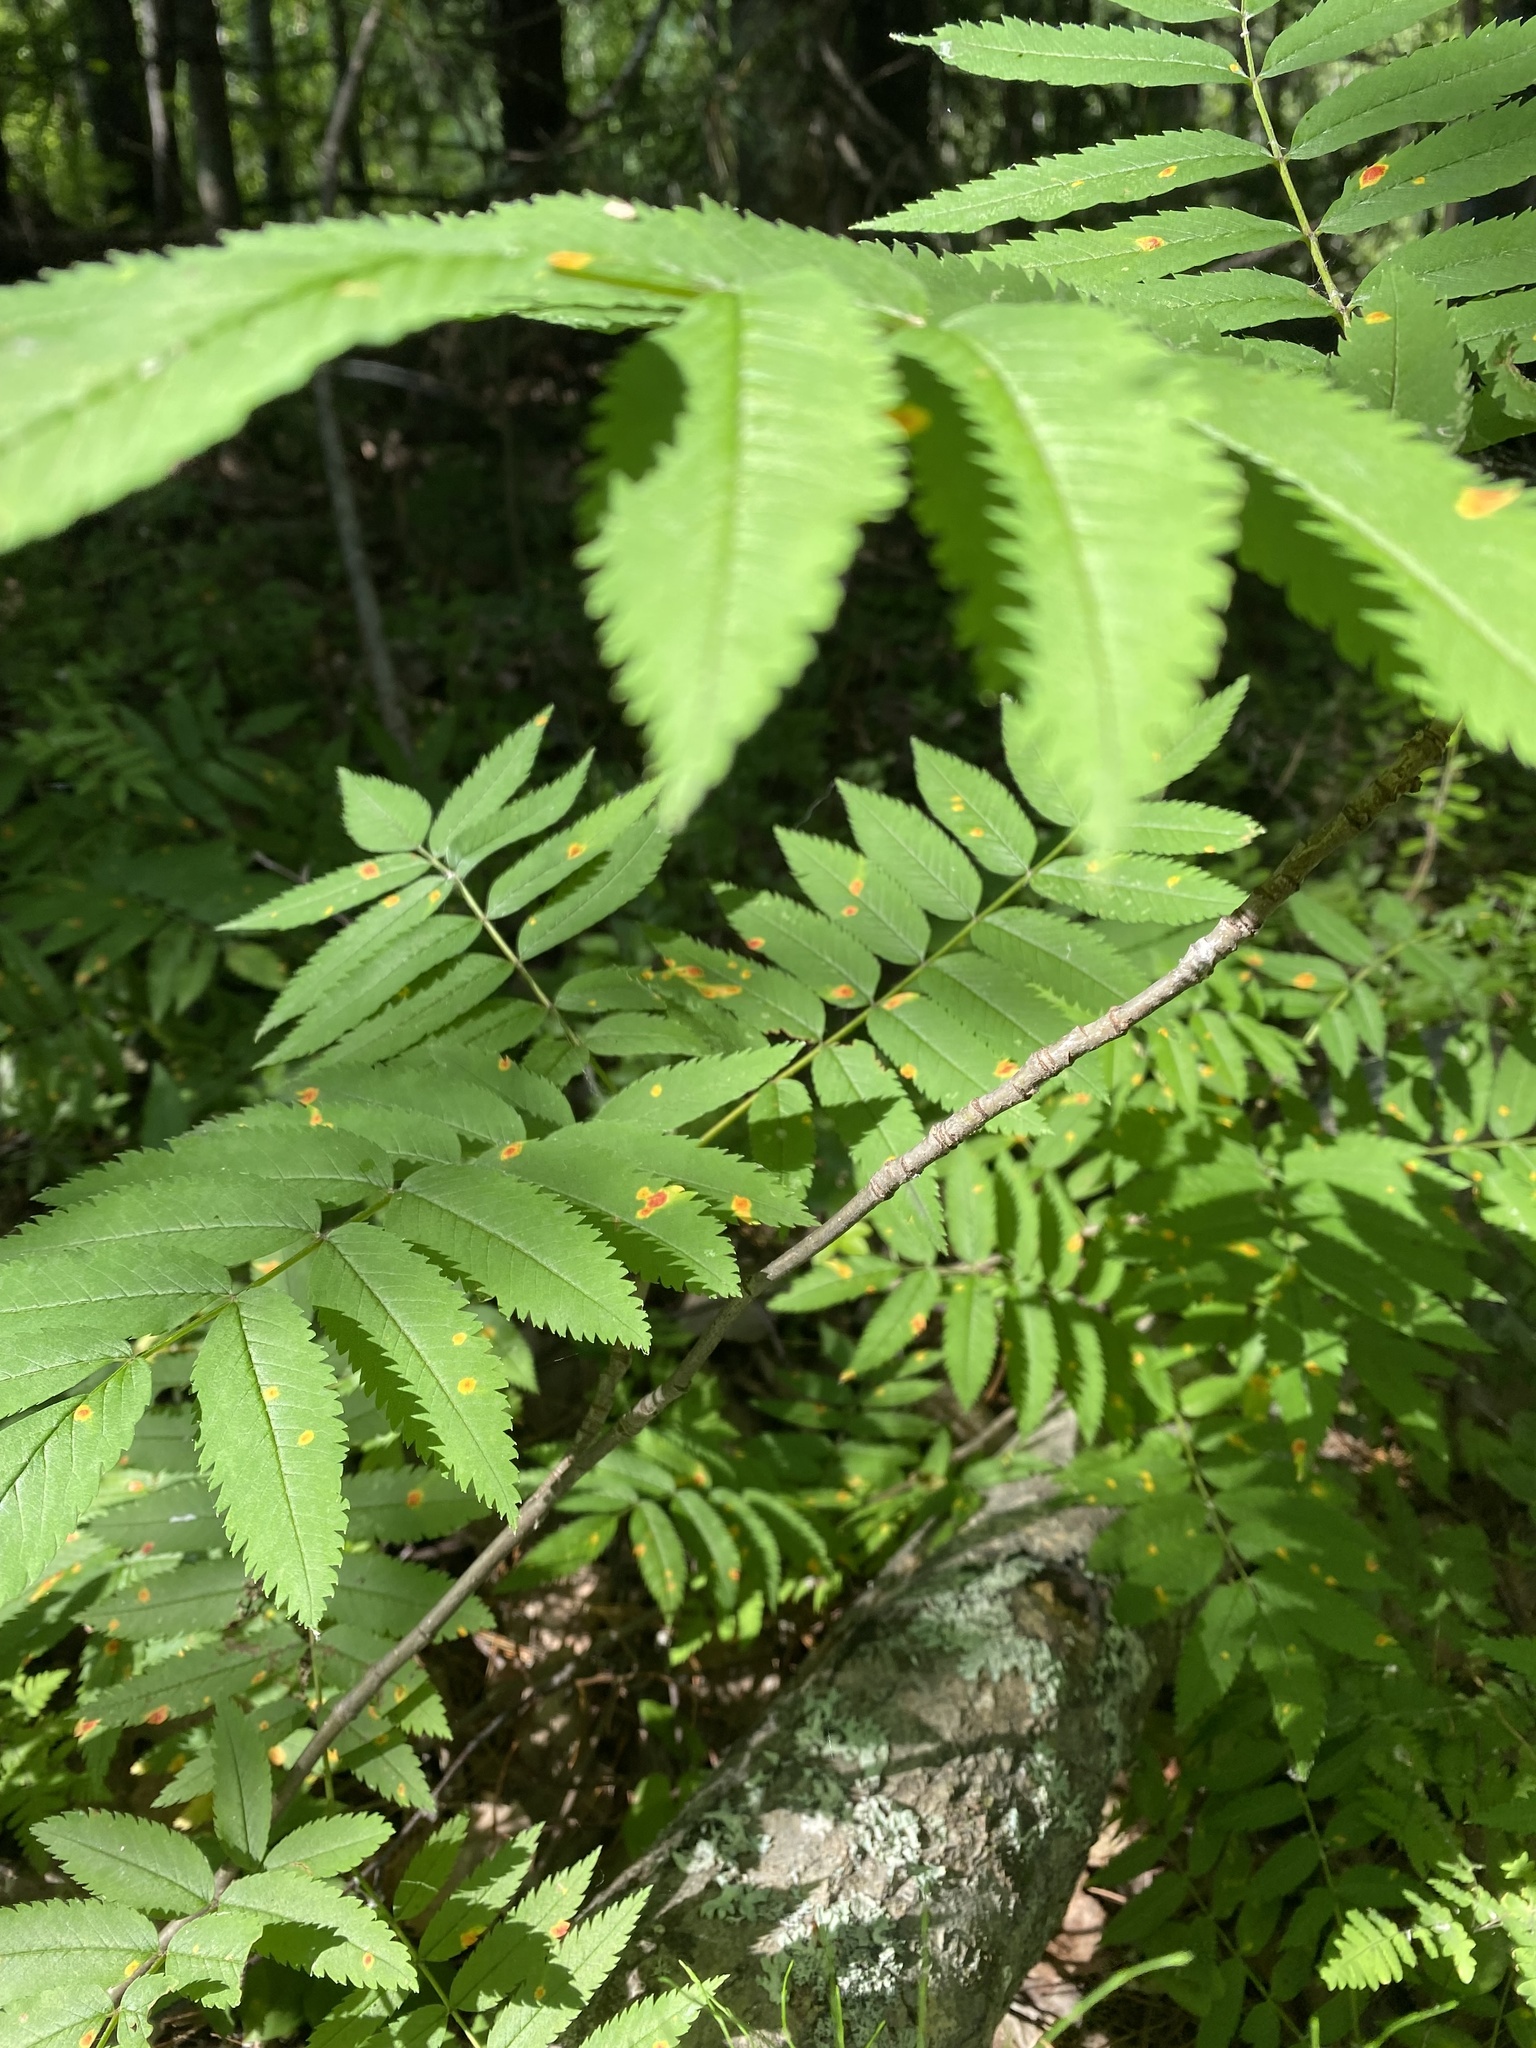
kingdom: Plantae
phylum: Tracheophyta
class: Magnoliopsida
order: Rosales
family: Rosaceae
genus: Sorbus
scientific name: Sorbus aucuparia
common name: Rowan
